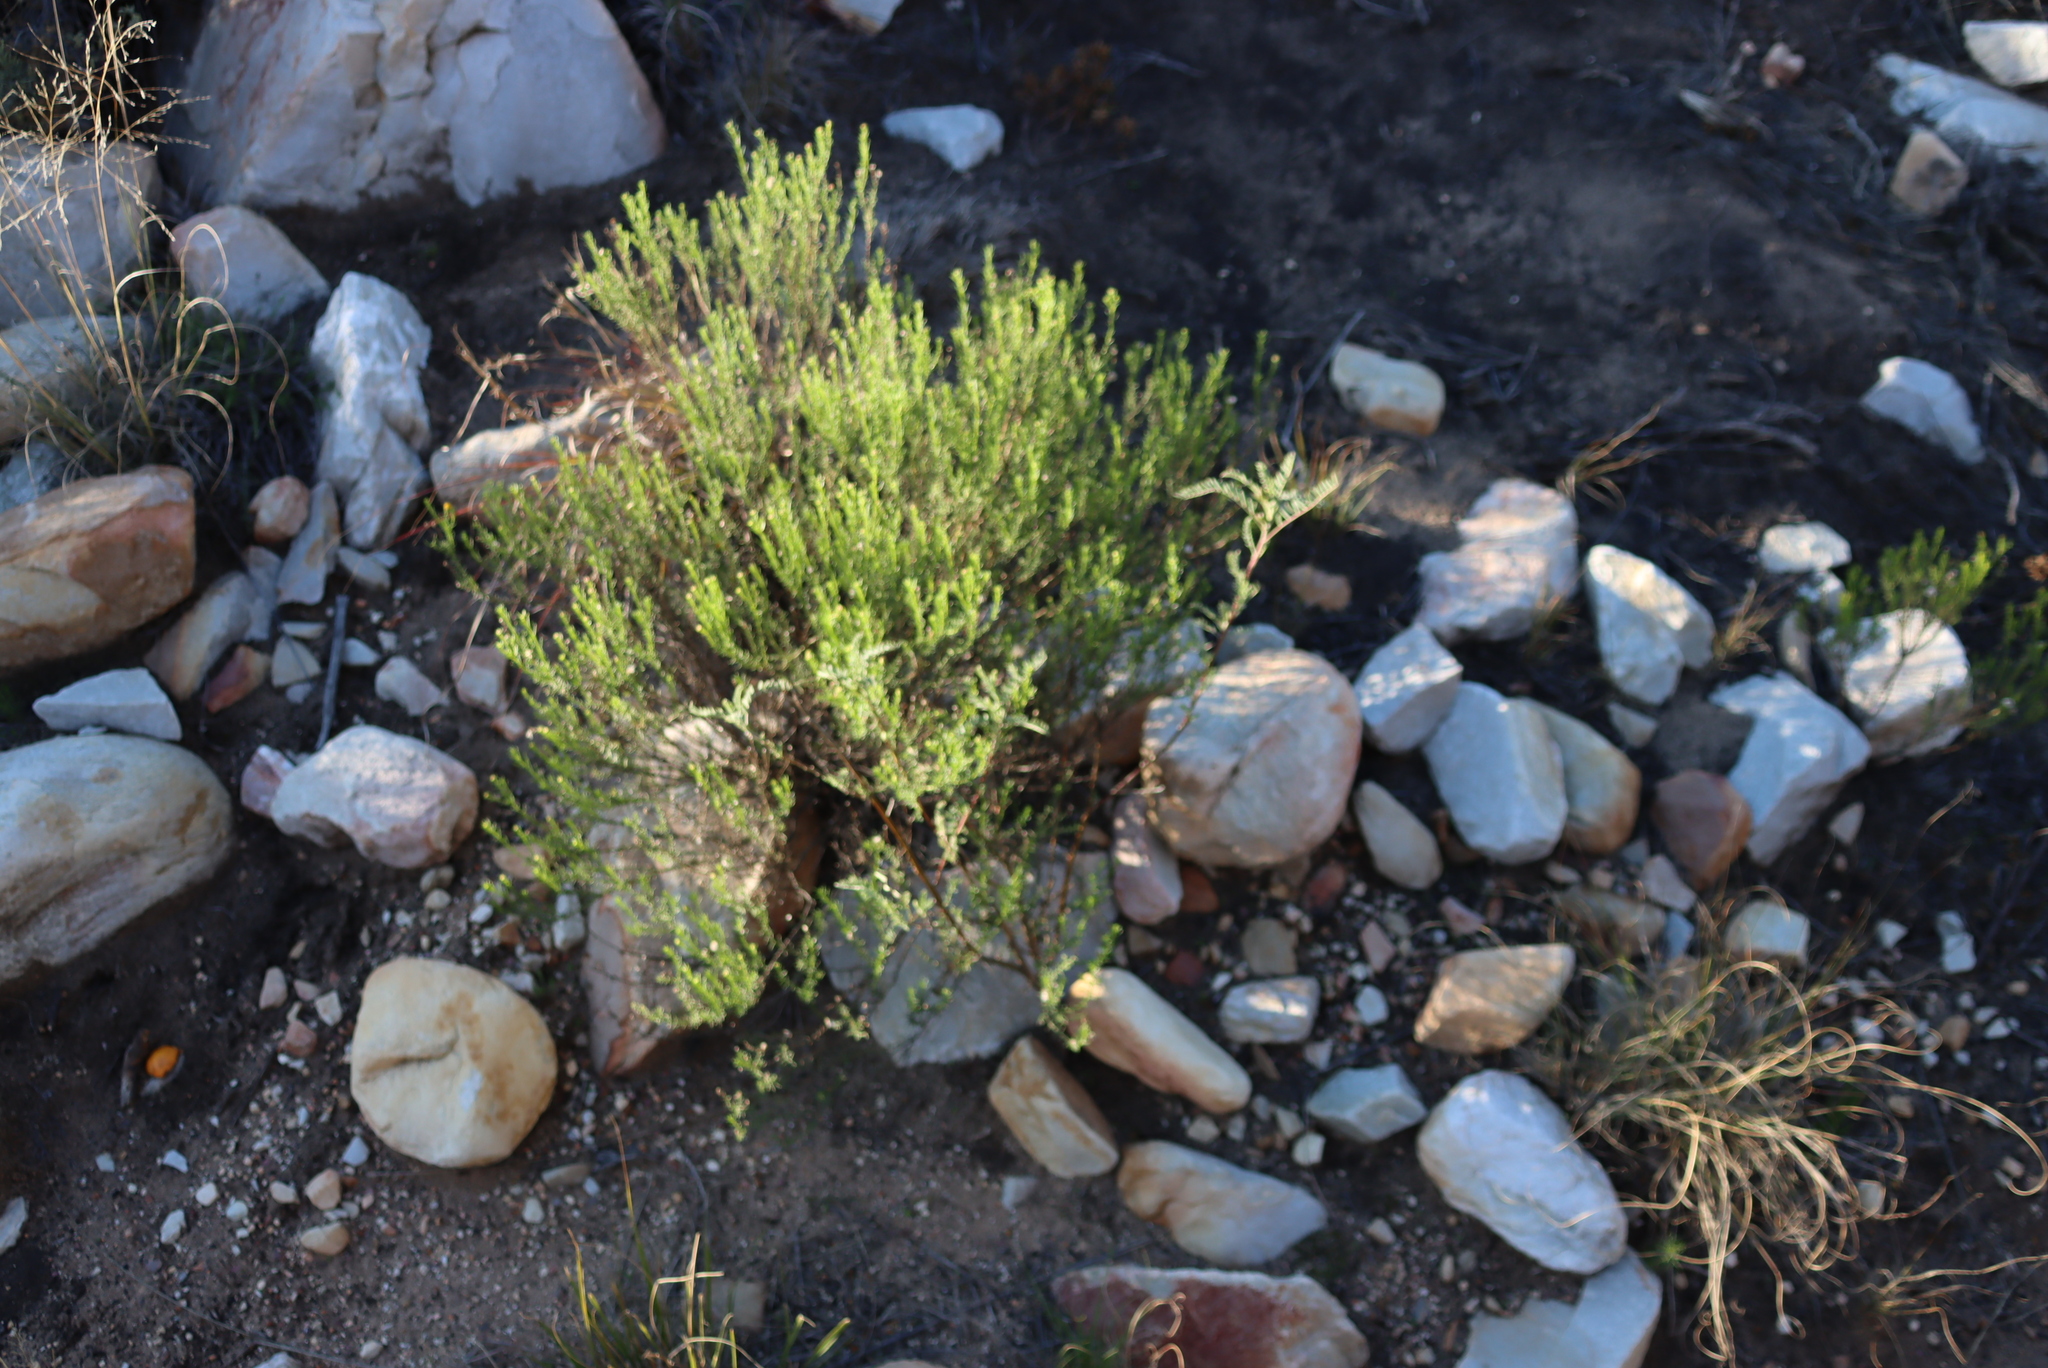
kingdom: Plantae
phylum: Tracheophyta
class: Magnoliopsida
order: Fabales
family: Fabaceae
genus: Lessertia
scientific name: Lessertia frutescens
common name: Balloon-pea
